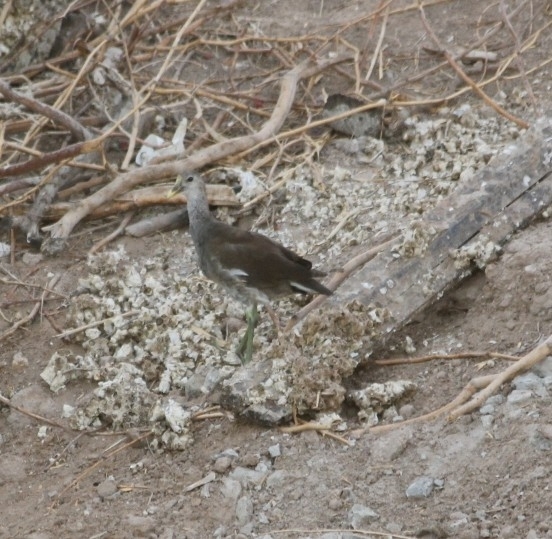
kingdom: Animalia
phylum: Chordata
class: Aves
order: Gruiformes
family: Rallidae
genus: Gallinula
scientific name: Gallinula chloropus
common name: Common moorhen
